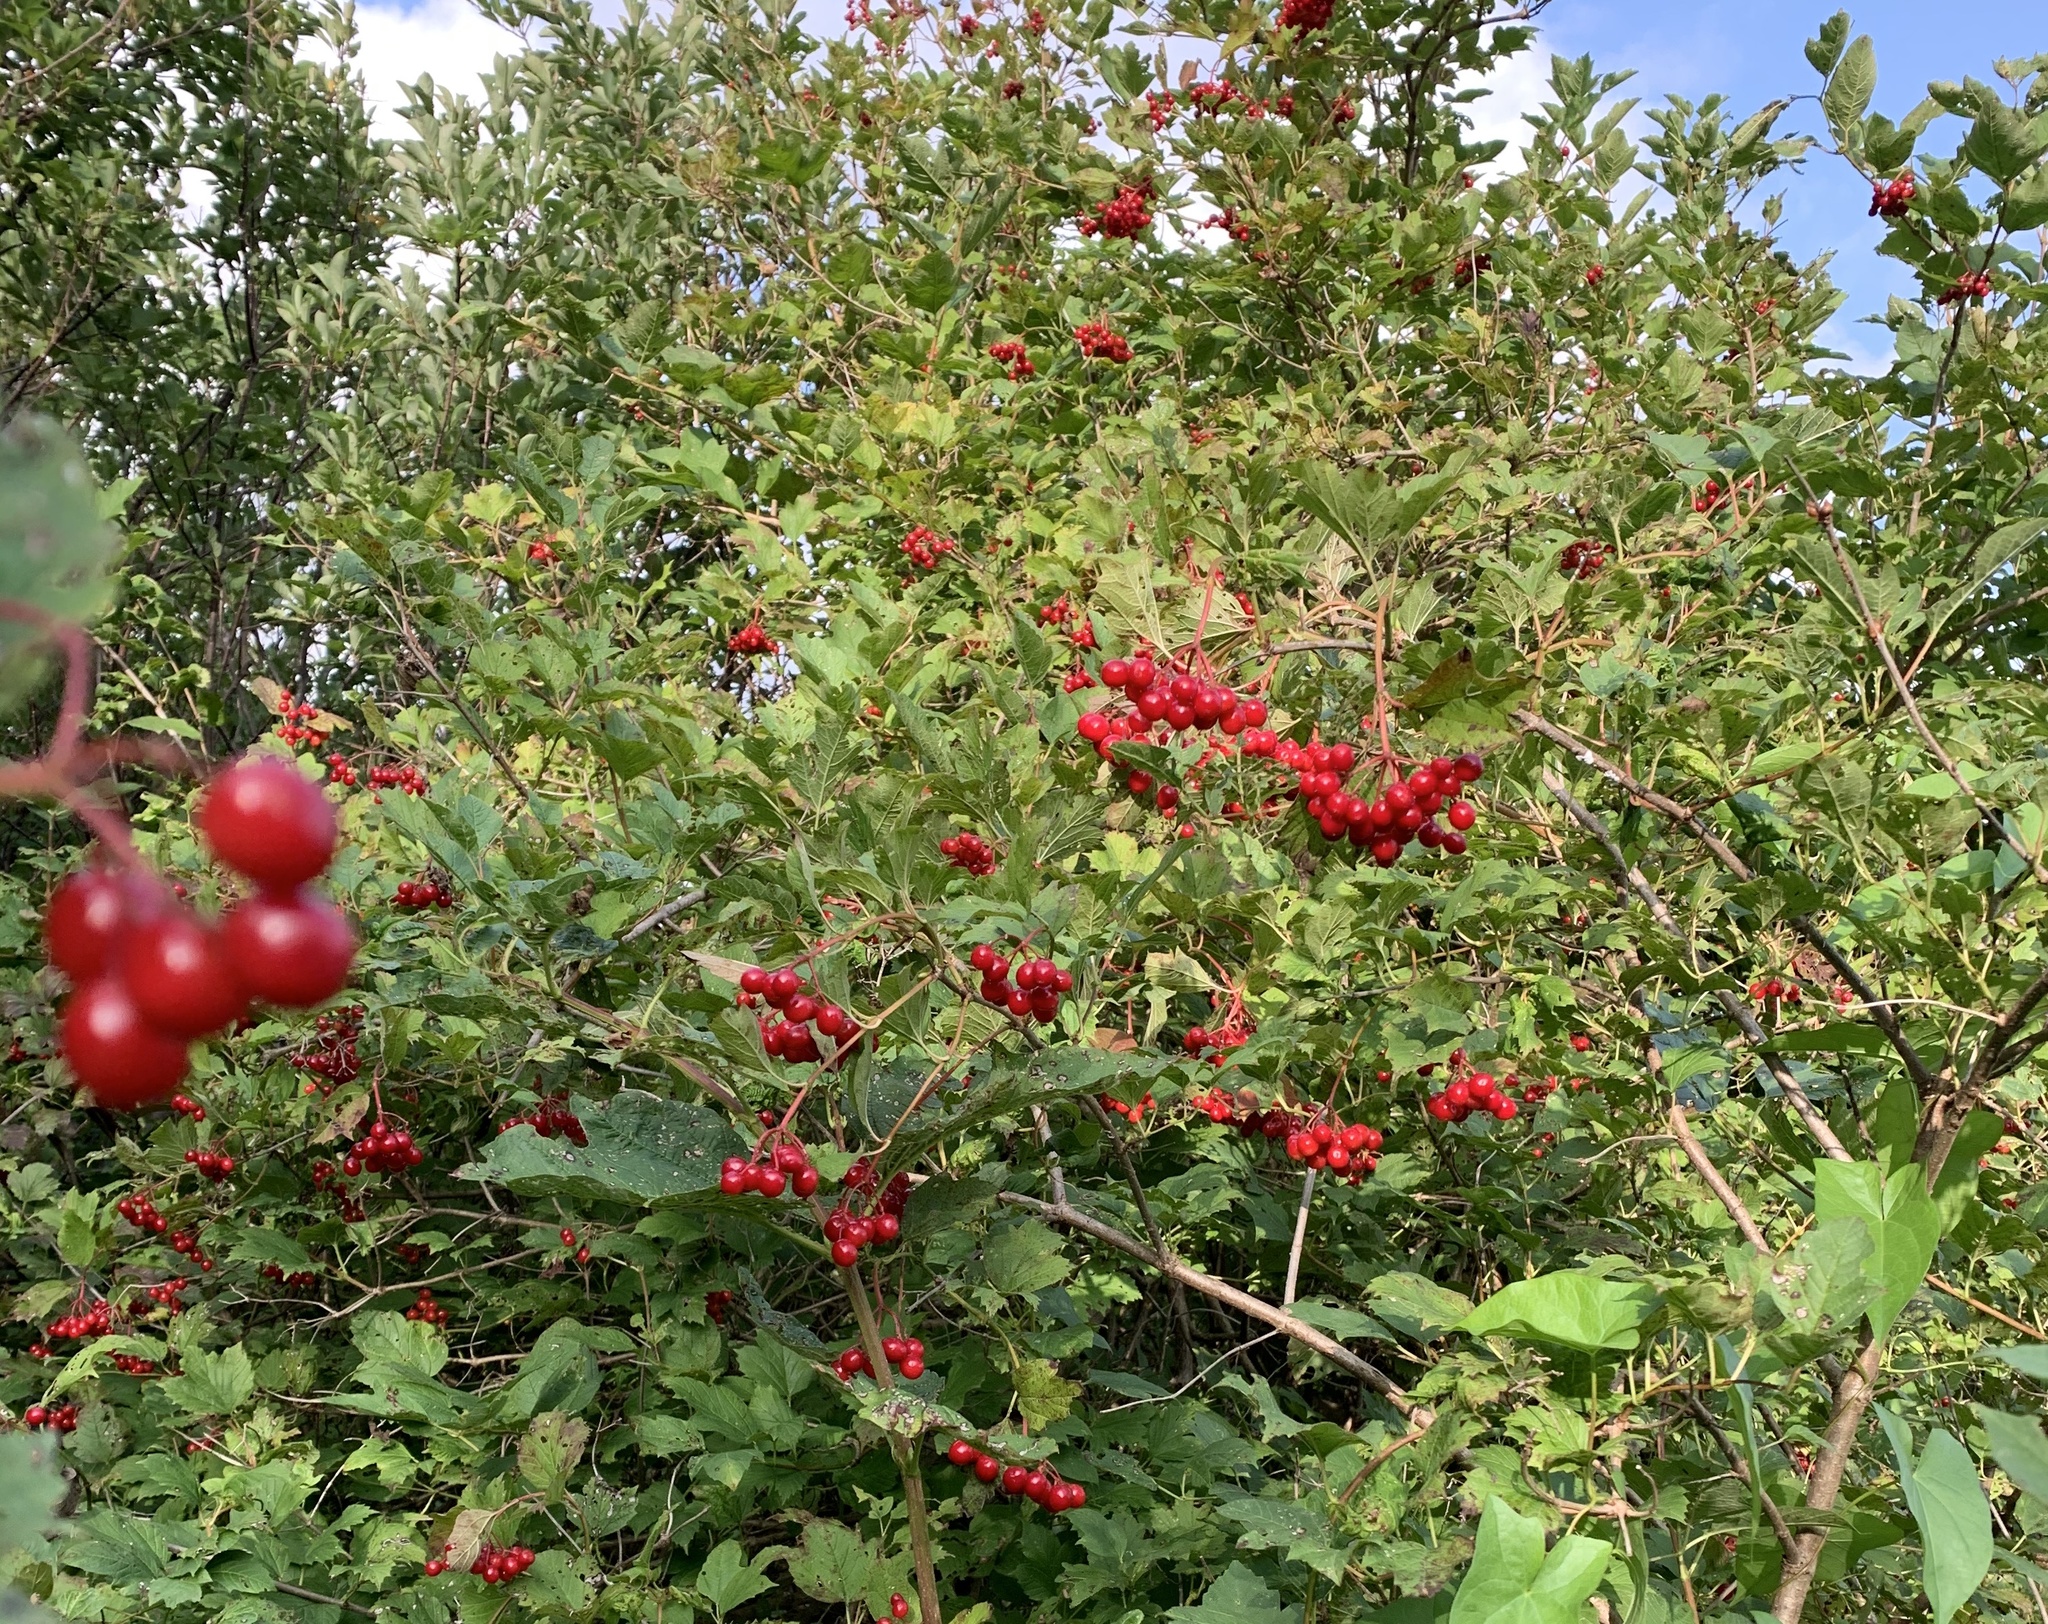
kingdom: Plantae
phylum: Tracheophyta
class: Magnoliopsida
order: Dipsacales
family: Viburnaceae
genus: Viburnum
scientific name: Viburnum opulus
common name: Guelder-rose
